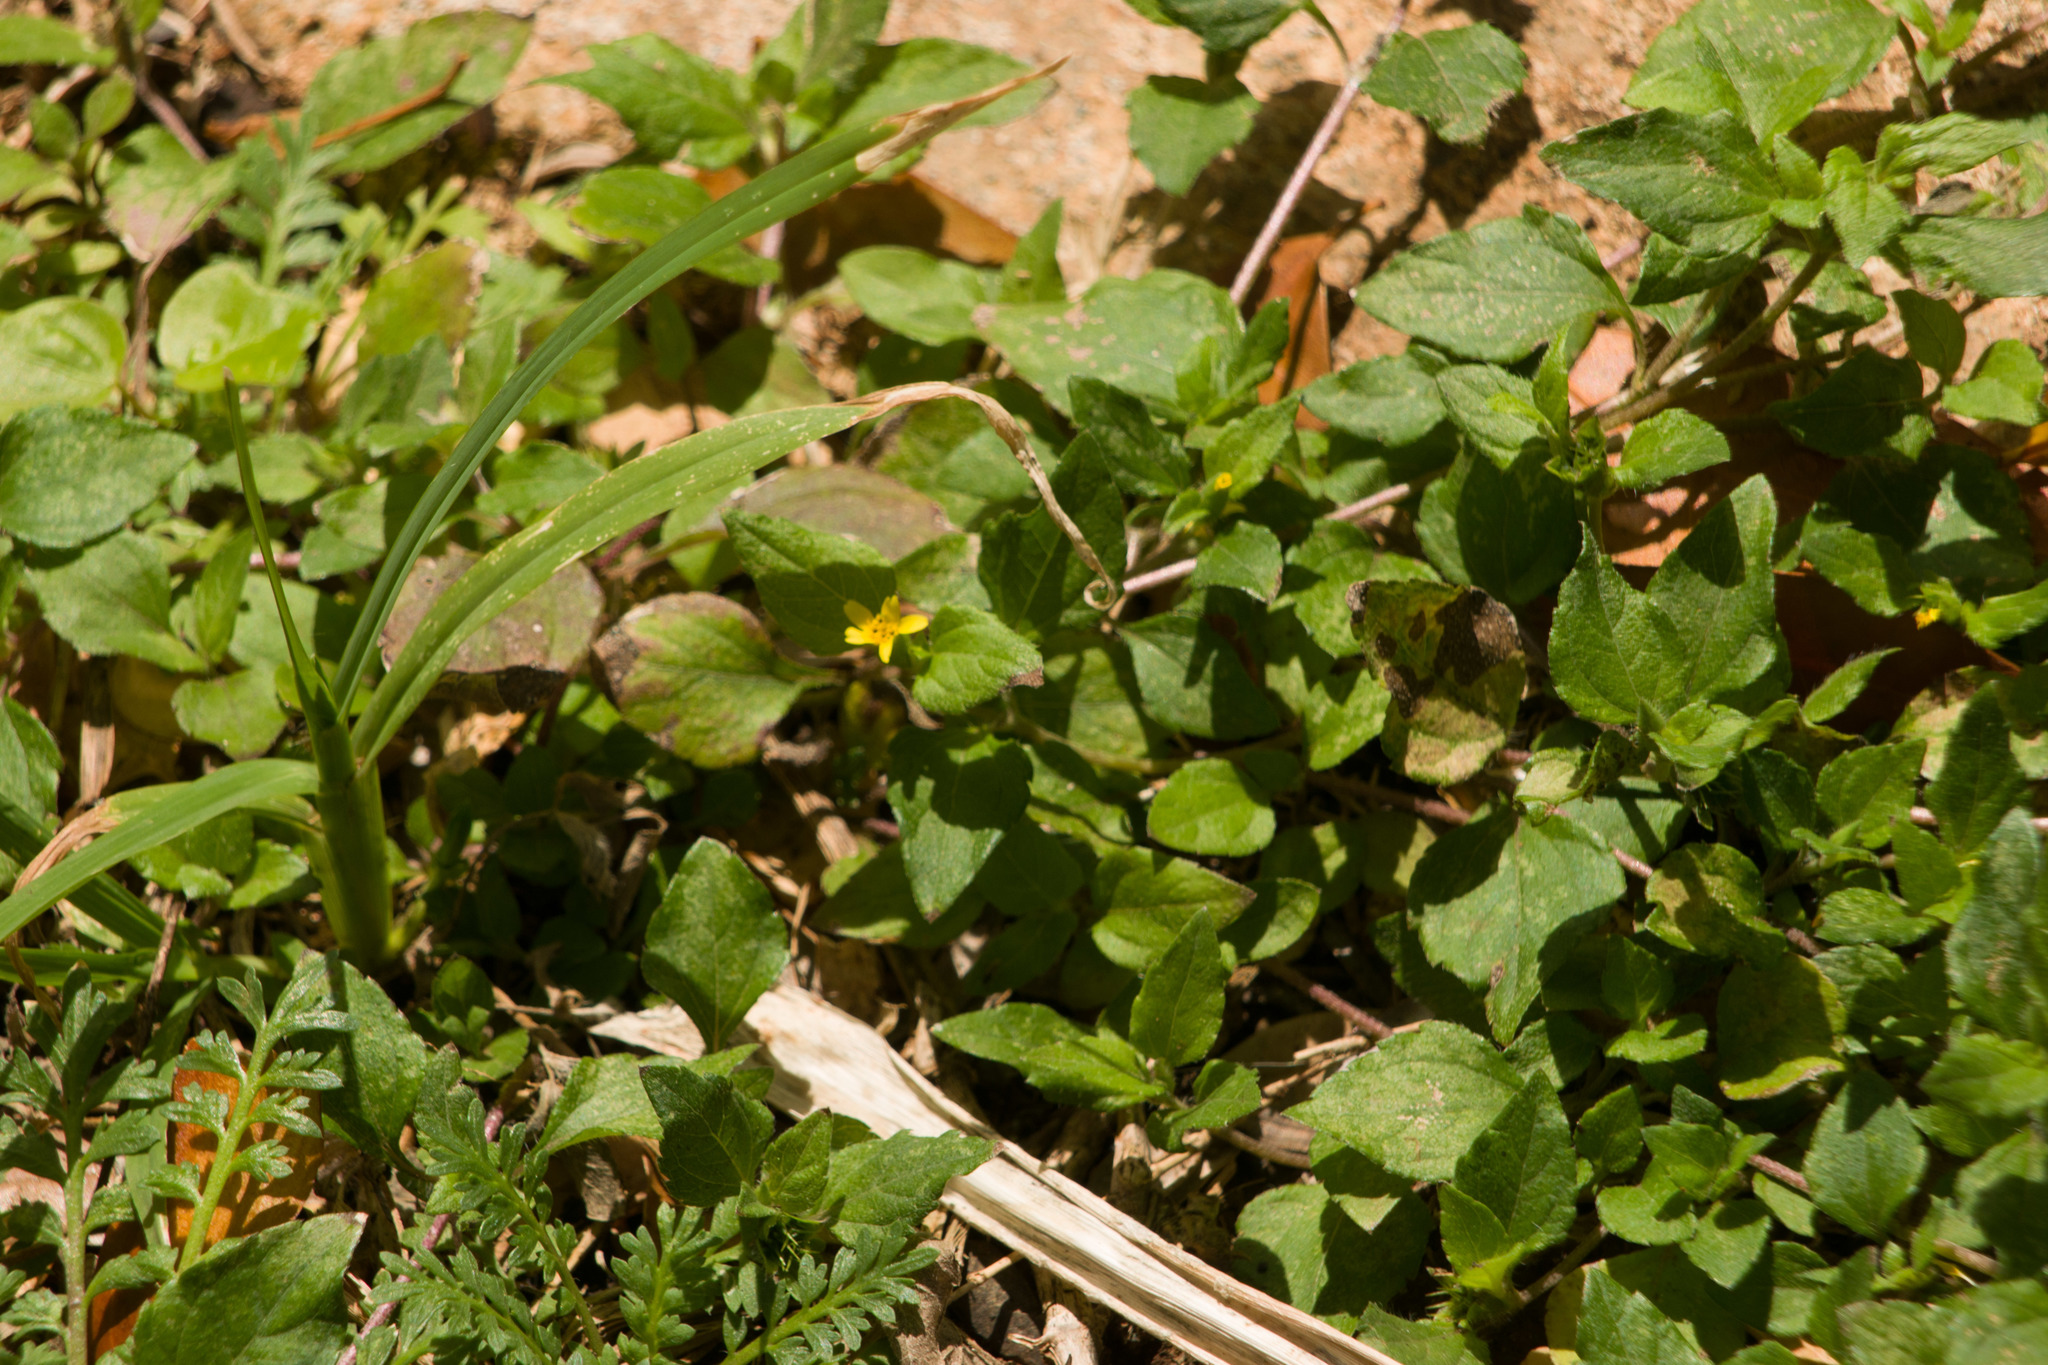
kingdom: Plantae
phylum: Tracheophyta
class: Magnoliopsida
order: Asterales
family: Asteraceae
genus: Calyptocarpus
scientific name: Calyptocarpus vialis
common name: Straggler daisy
